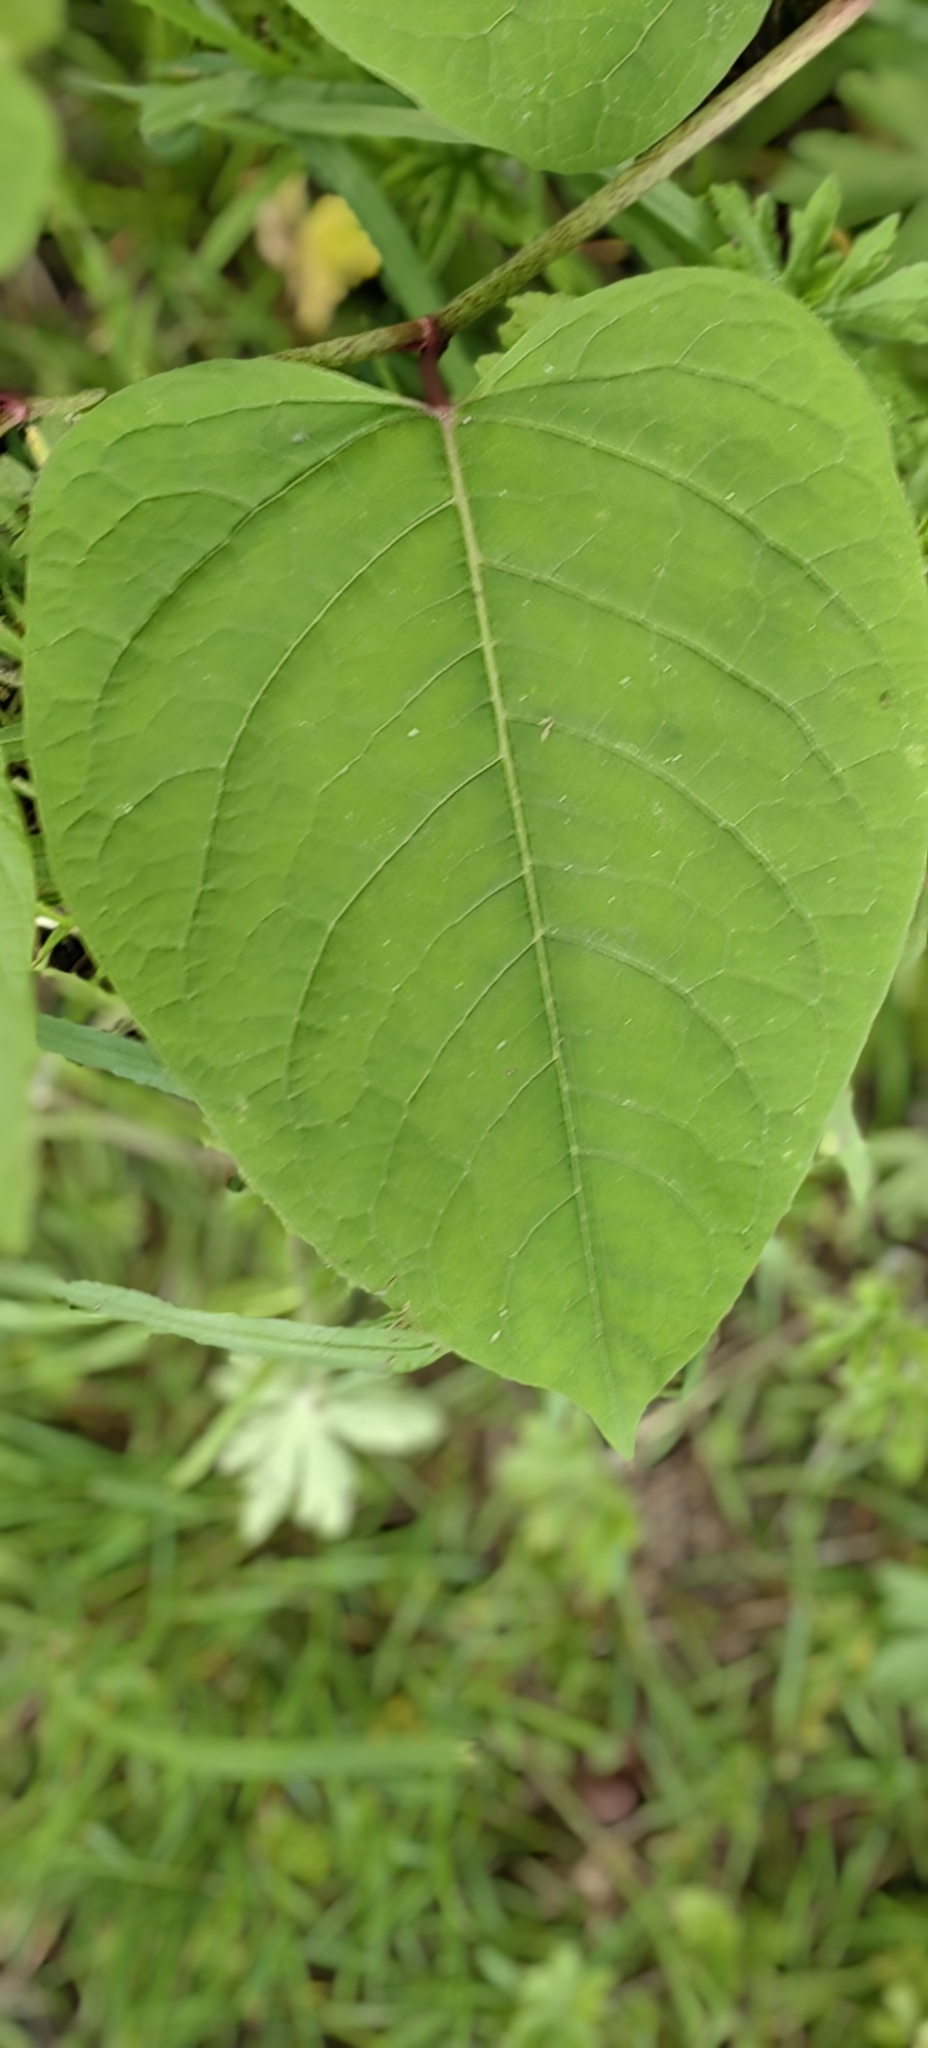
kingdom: Plantae
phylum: Tracheophyta
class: Magnoliopsida
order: Caryophyllales
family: Polygonaceae
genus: Reynoutria
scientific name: Reynoutria bohemica
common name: Bohemian knotweed
